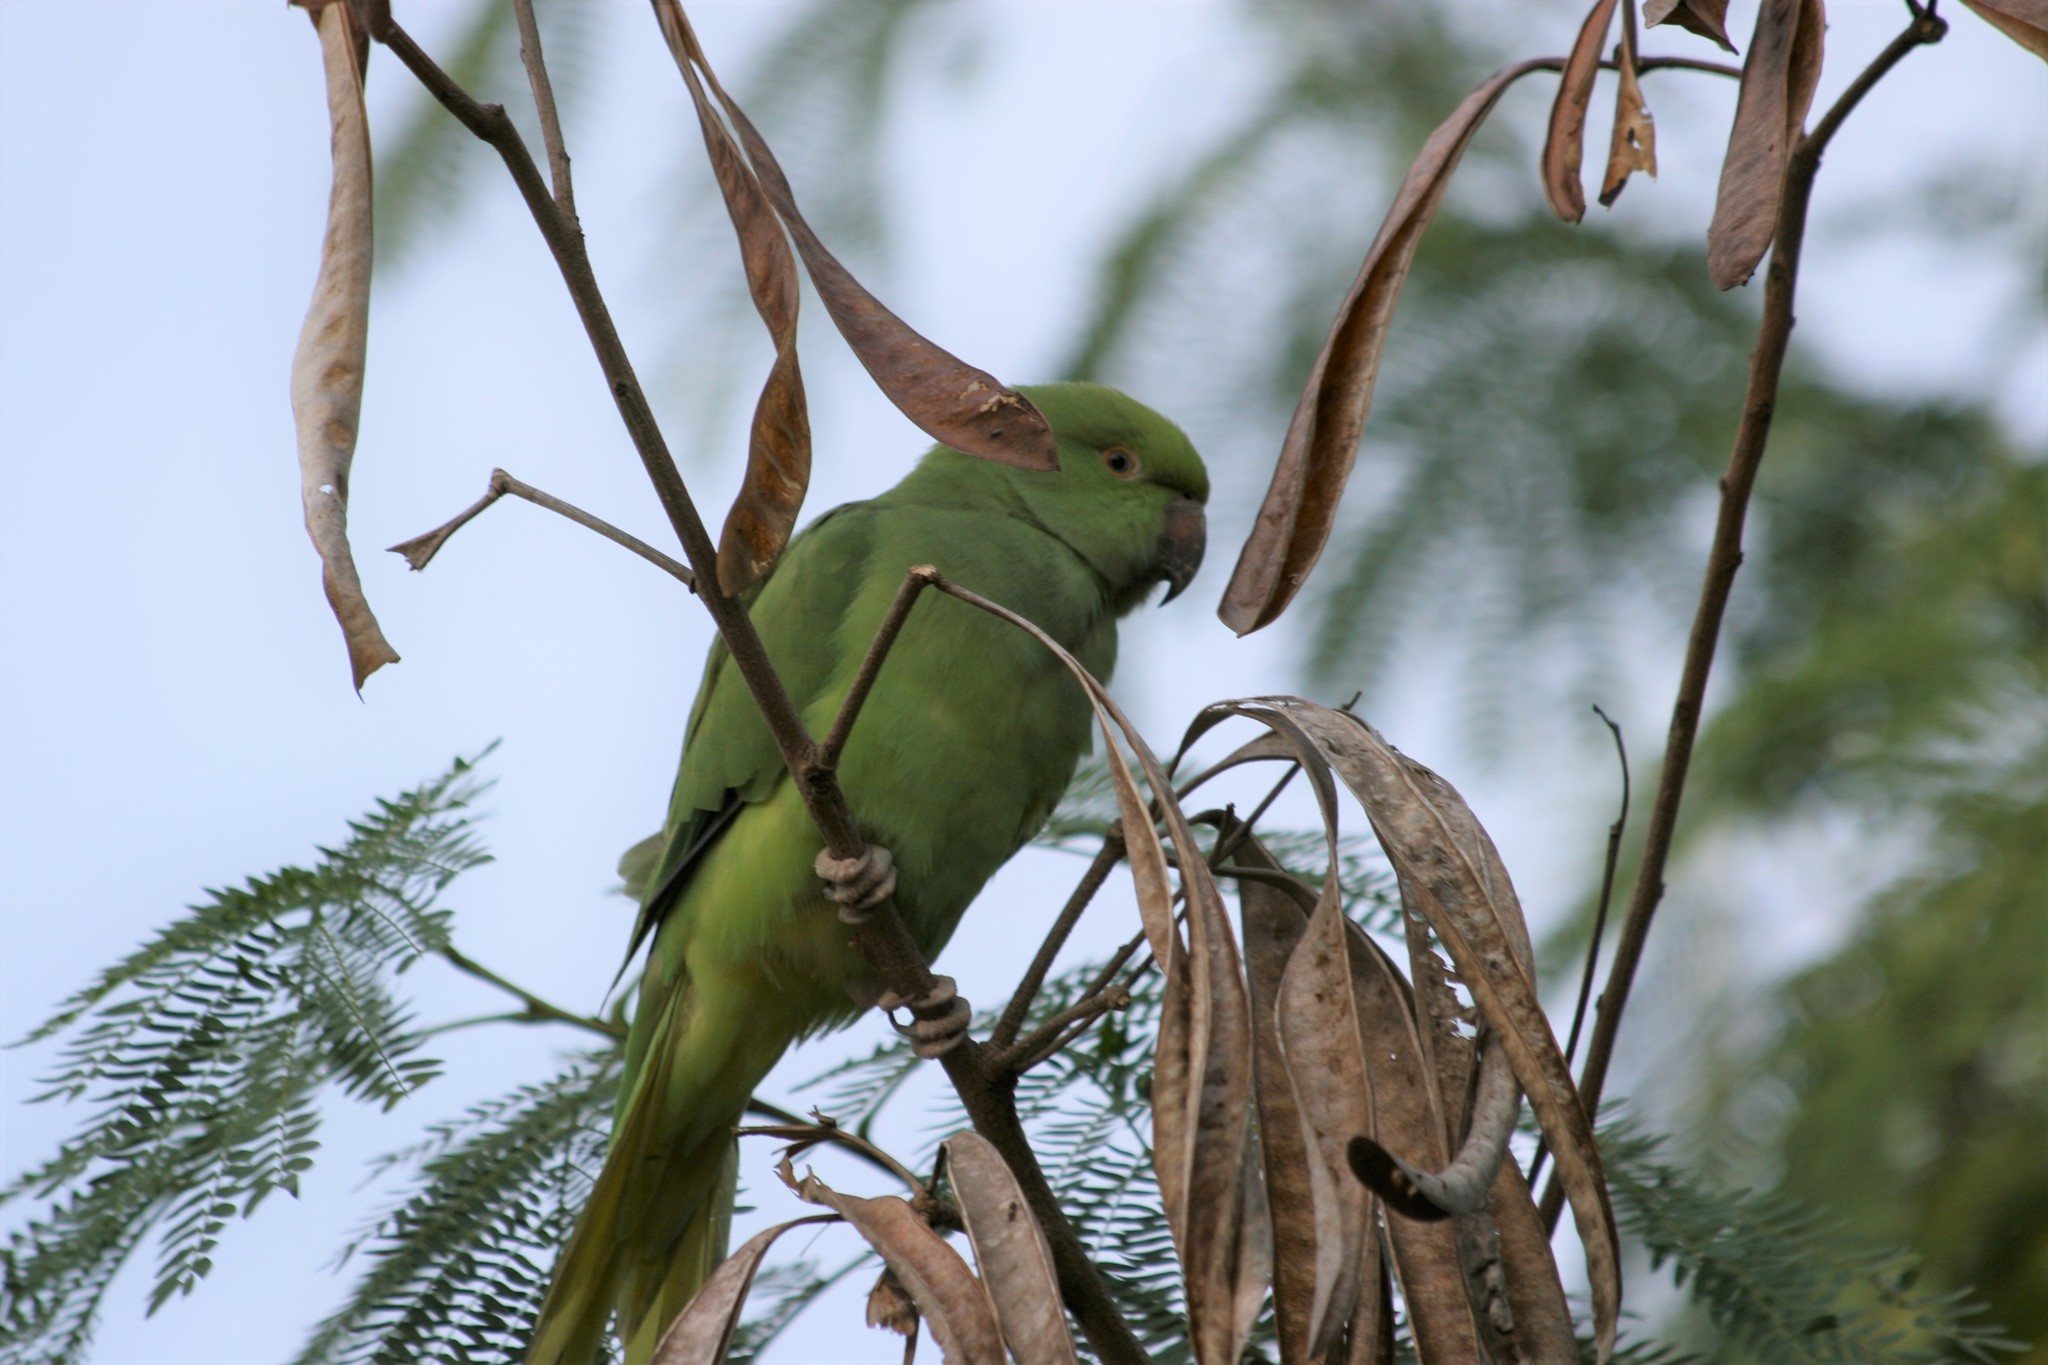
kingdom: Animalia
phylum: Chordata
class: Aves
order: Psittaciformes
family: Psittacidae
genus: Psittacula
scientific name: Psittacula krameri
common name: Rose-ringed parakeet
